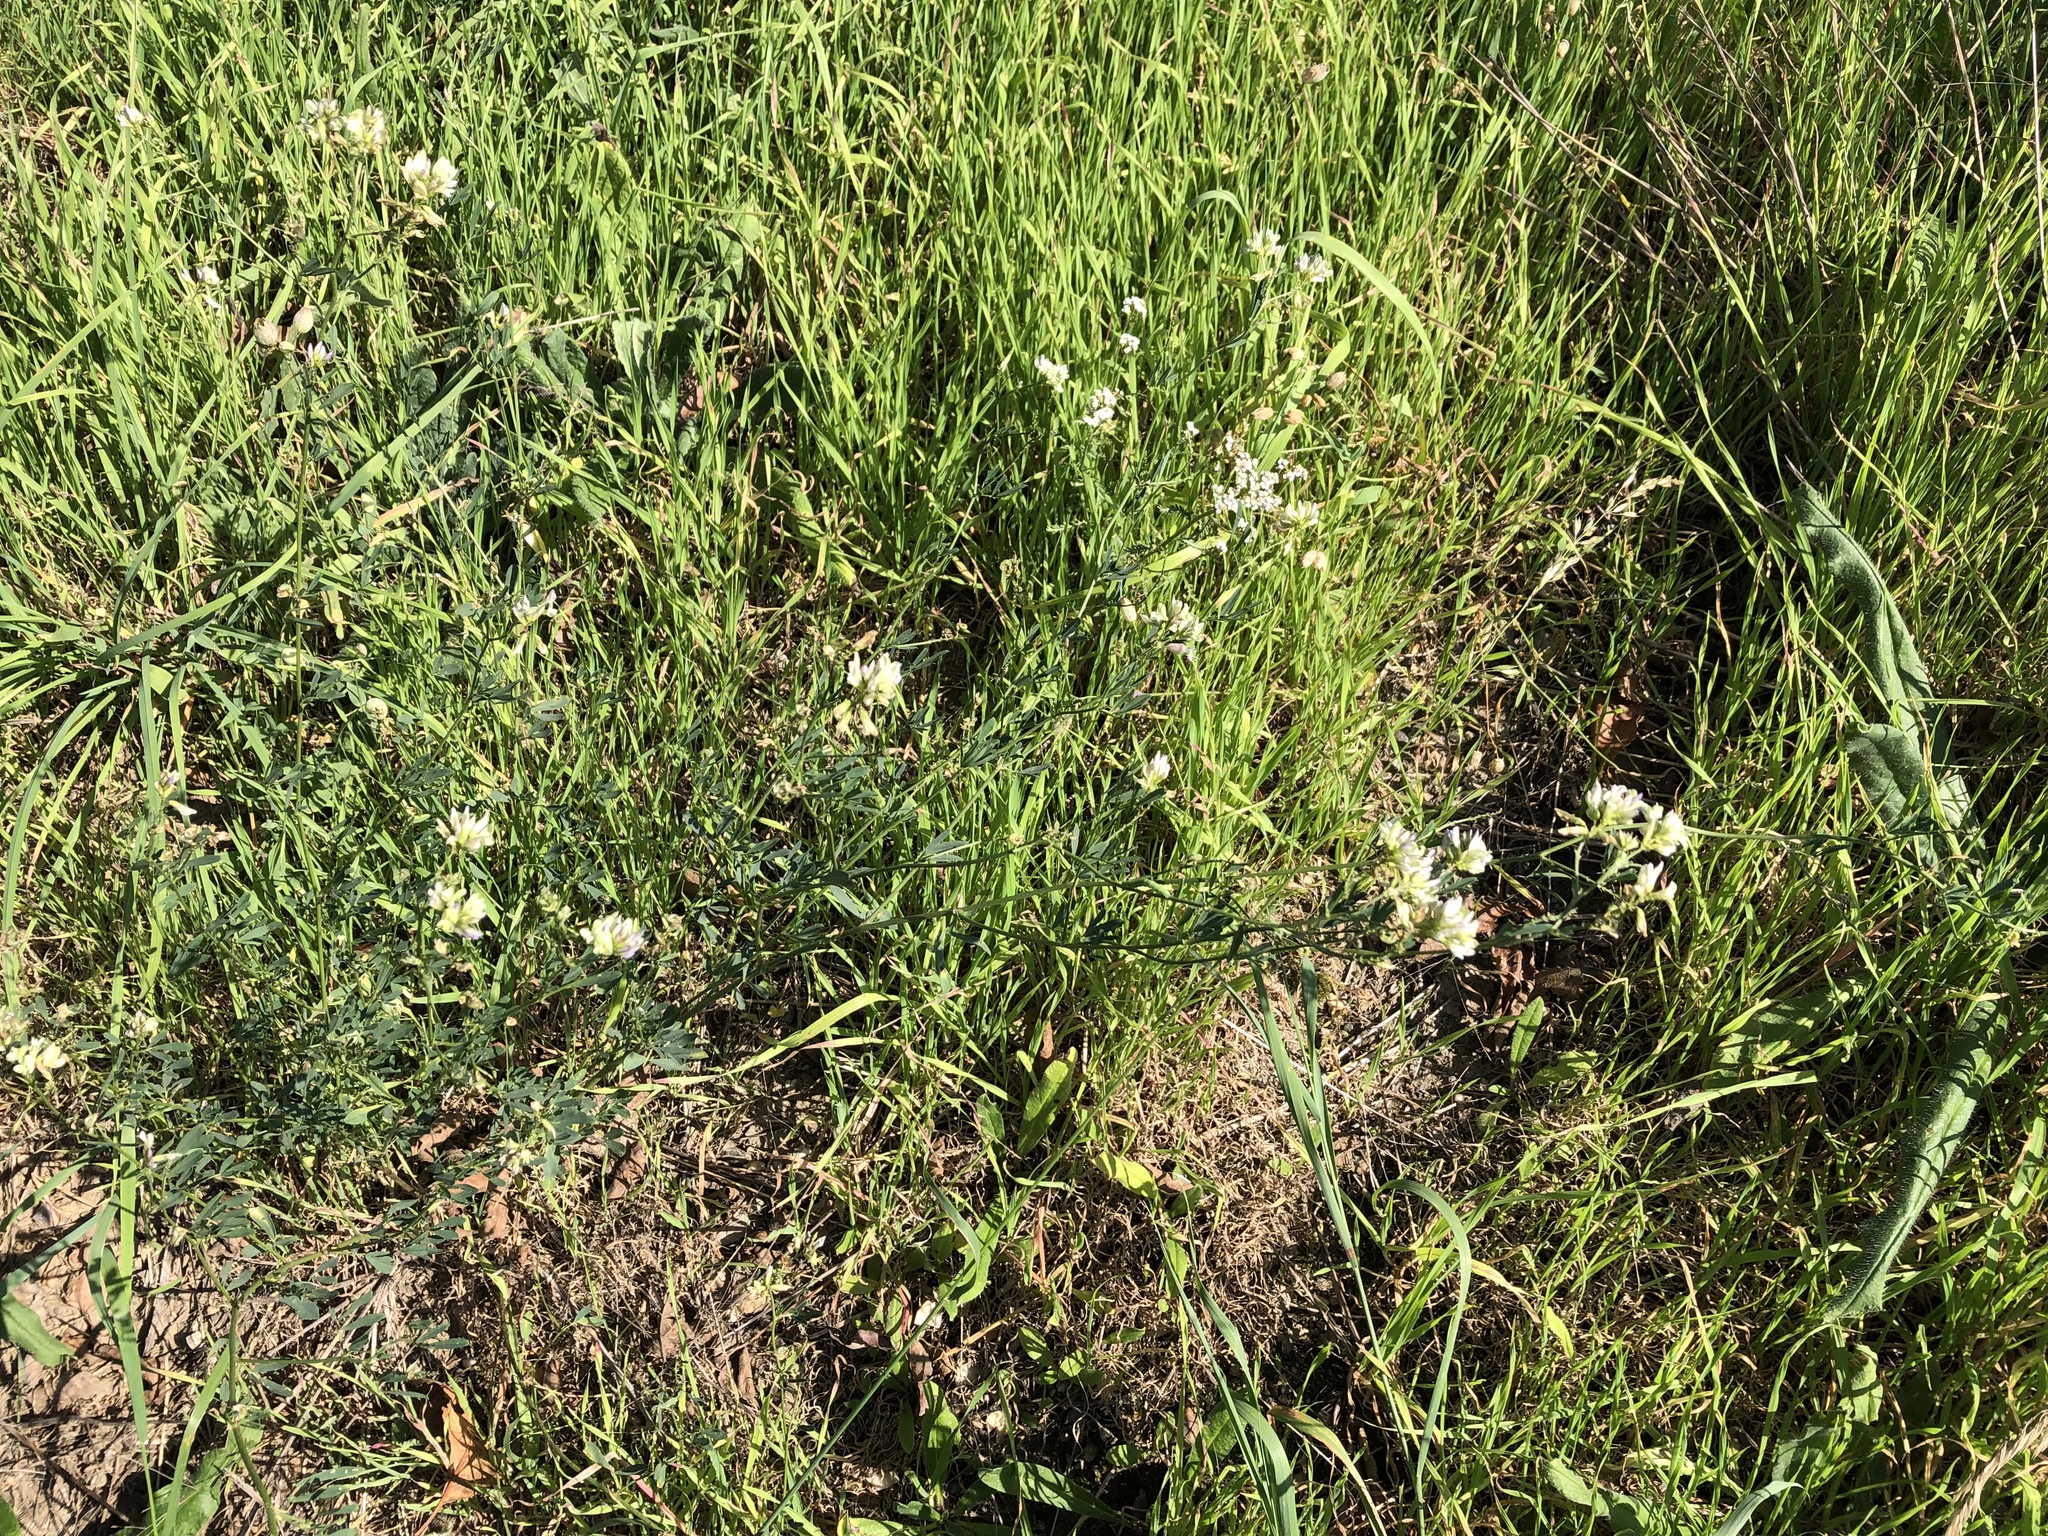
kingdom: Plantae
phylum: Tracheophyta
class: Magnoliopsida
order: Fabales
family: Fabaceae
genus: Medicago
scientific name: Medicago varia
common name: Sand lucerne
